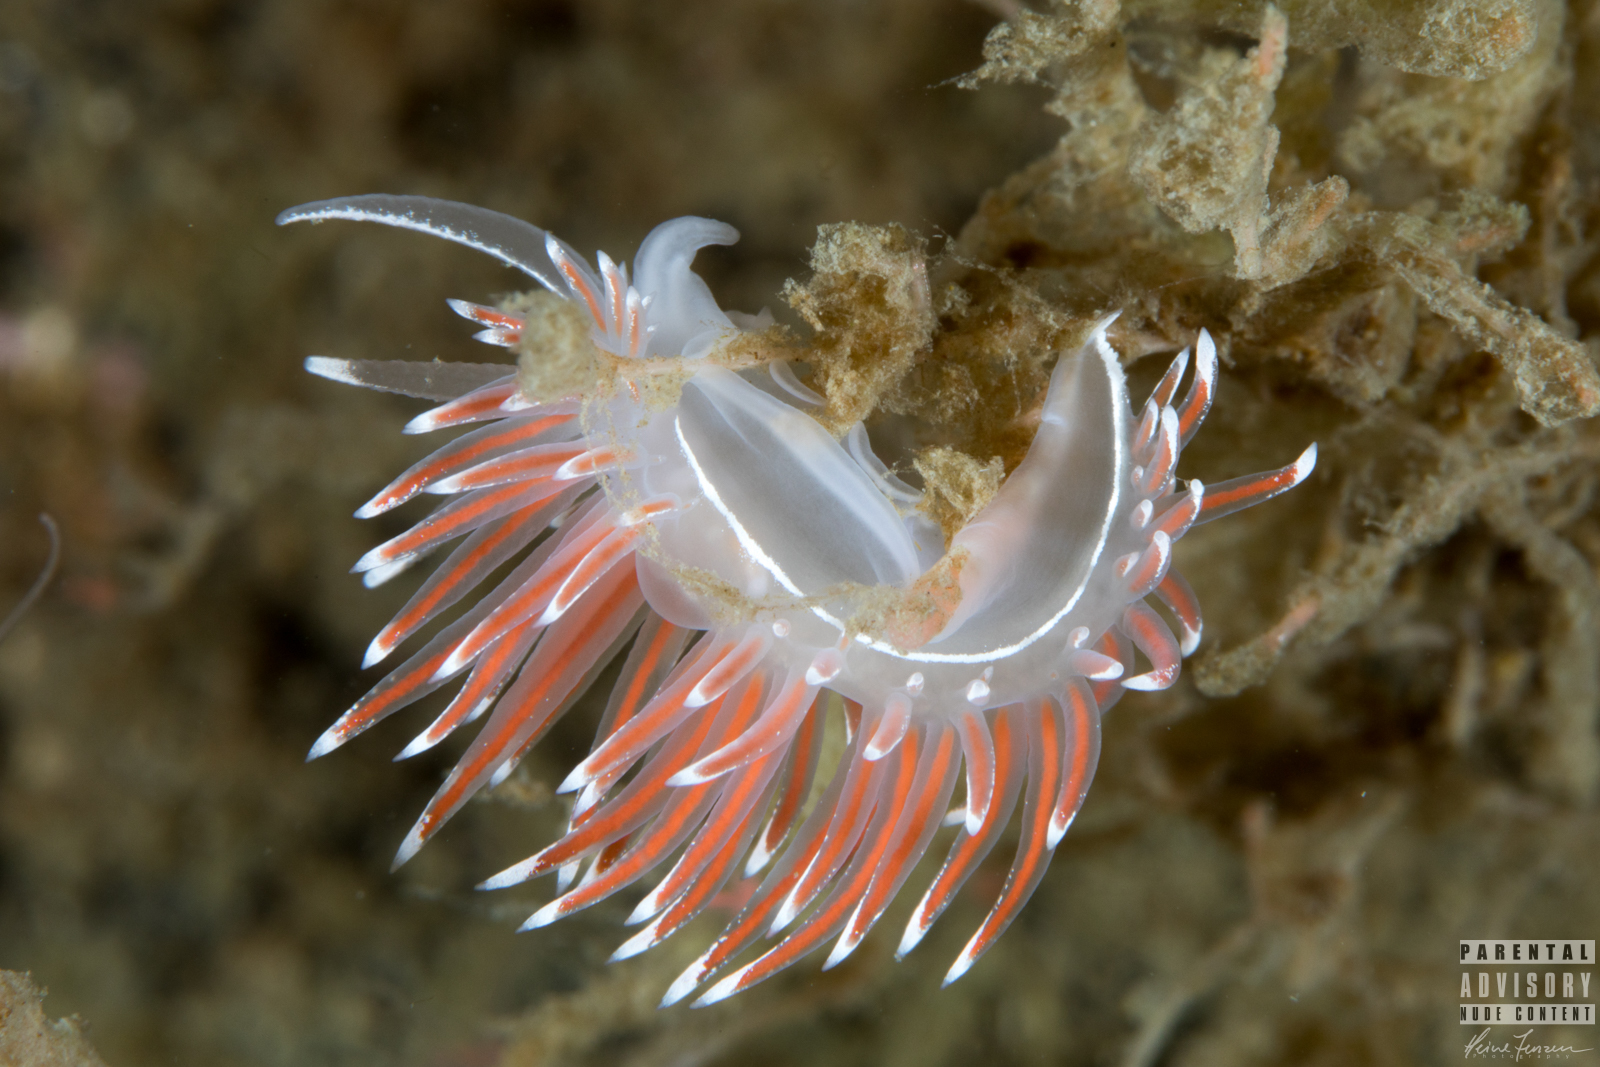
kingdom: Animalia
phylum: Mollusca
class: Gastropoda
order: Nudibranchia
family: Coryphellidae
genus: Coryphella
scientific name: Coryphella lineata
